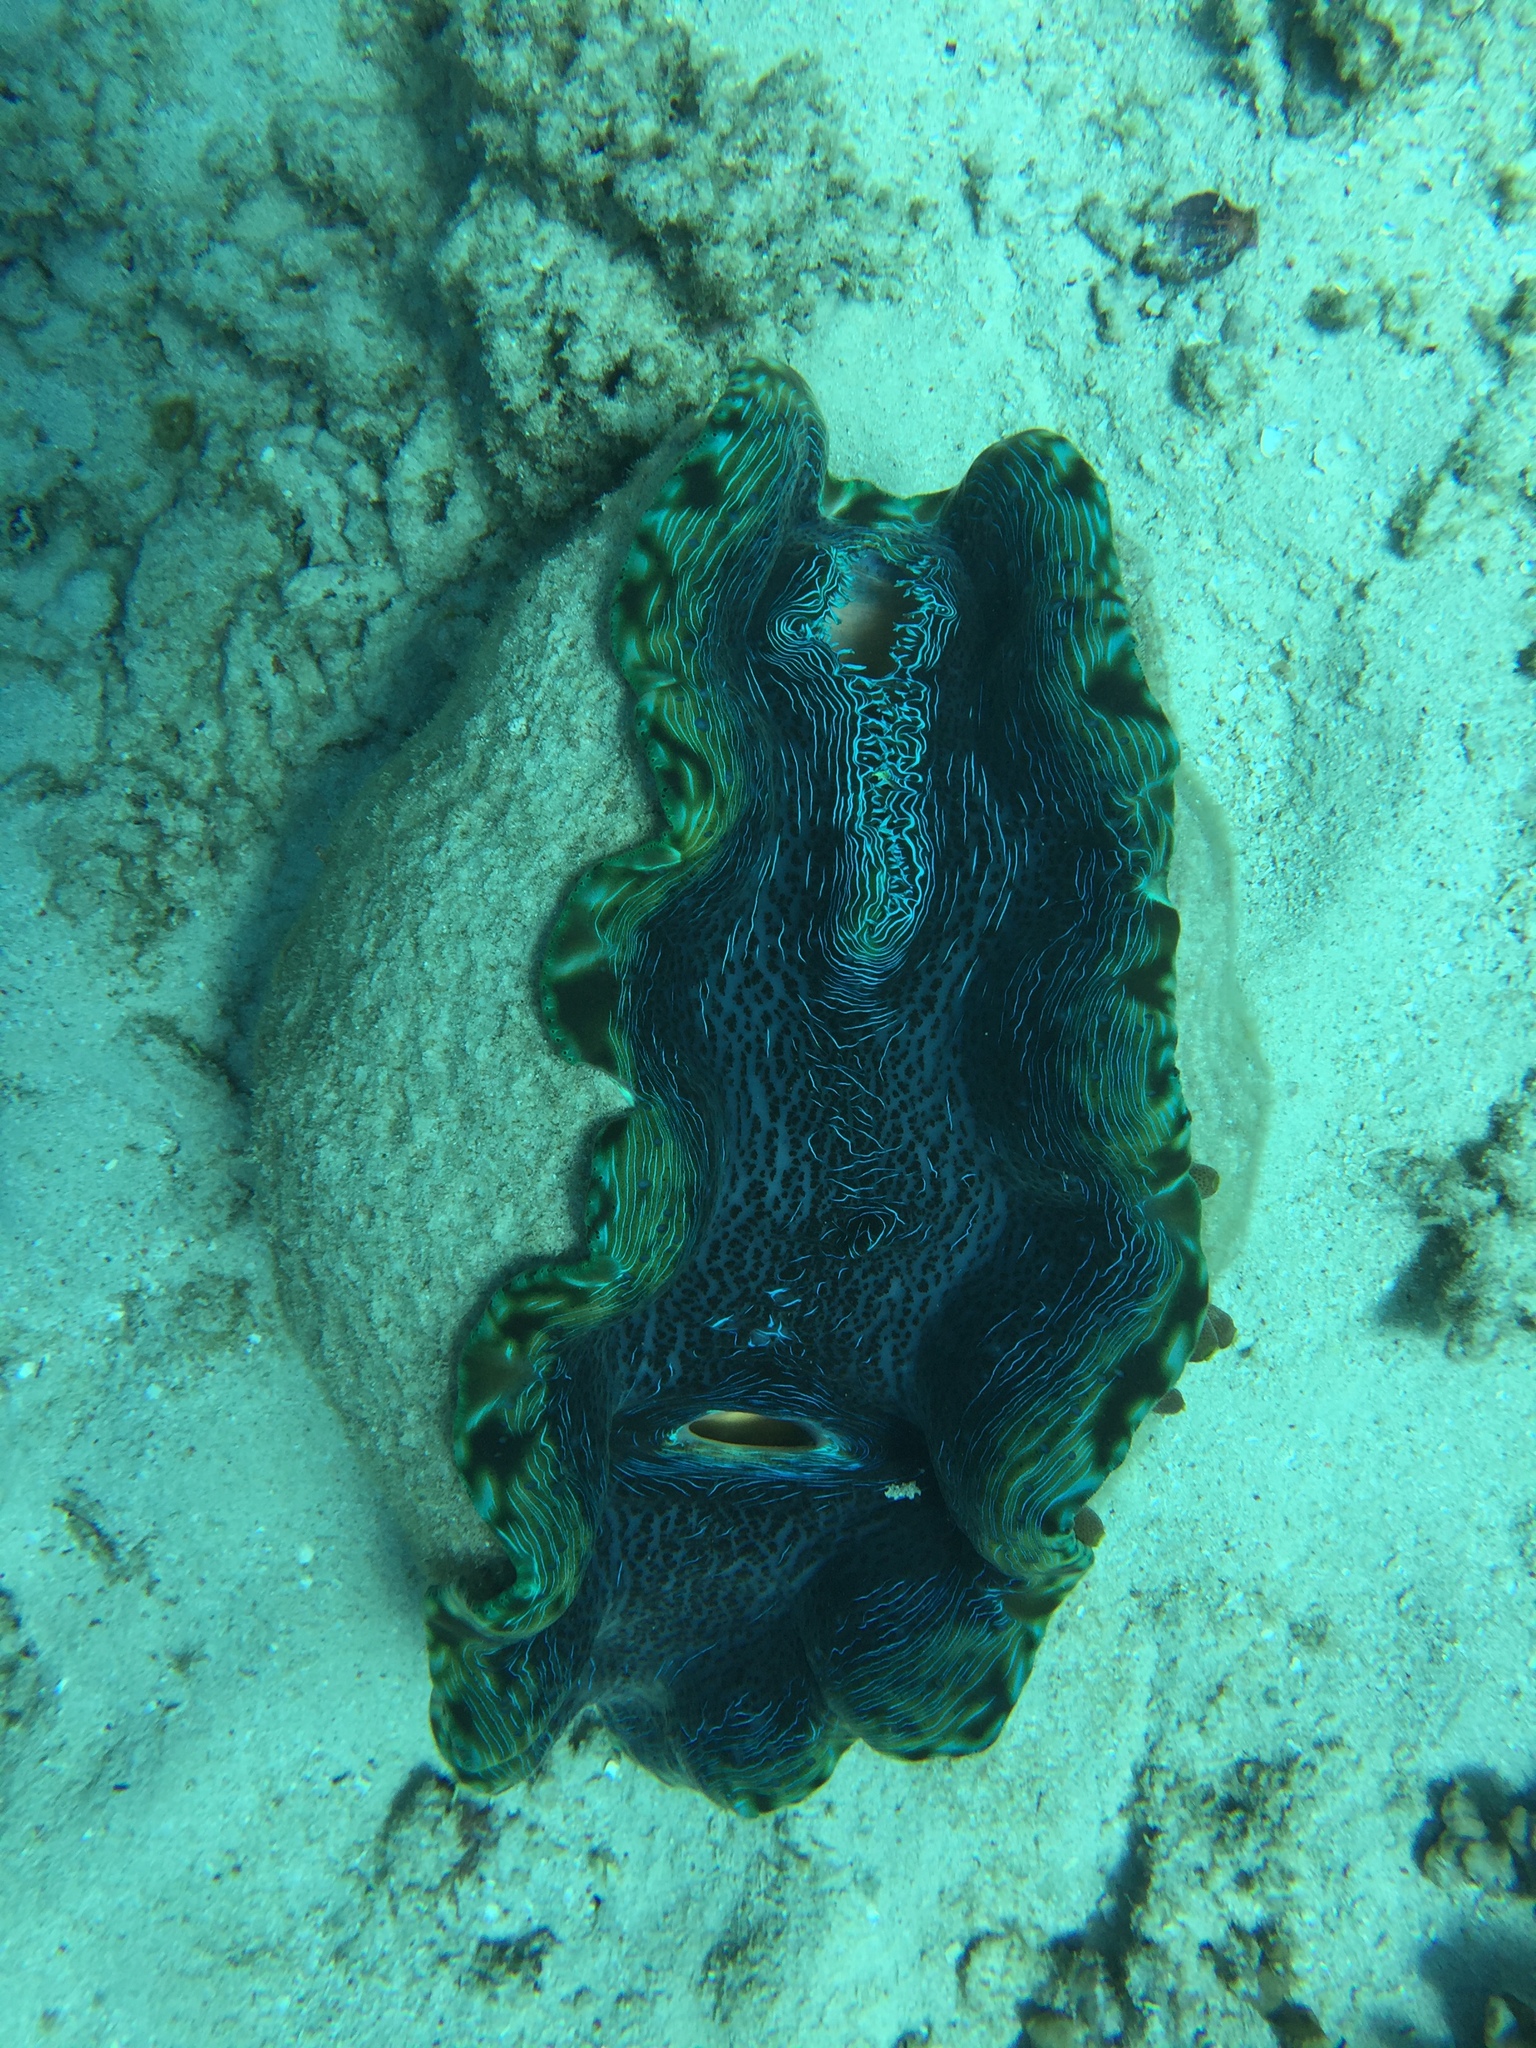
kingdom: Animalia
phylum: Mollusca
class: Bivalvia
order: Cardiida
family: Cardiidae
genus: Tridacna
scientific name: Tridacna derasa
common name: Southern giant clam
